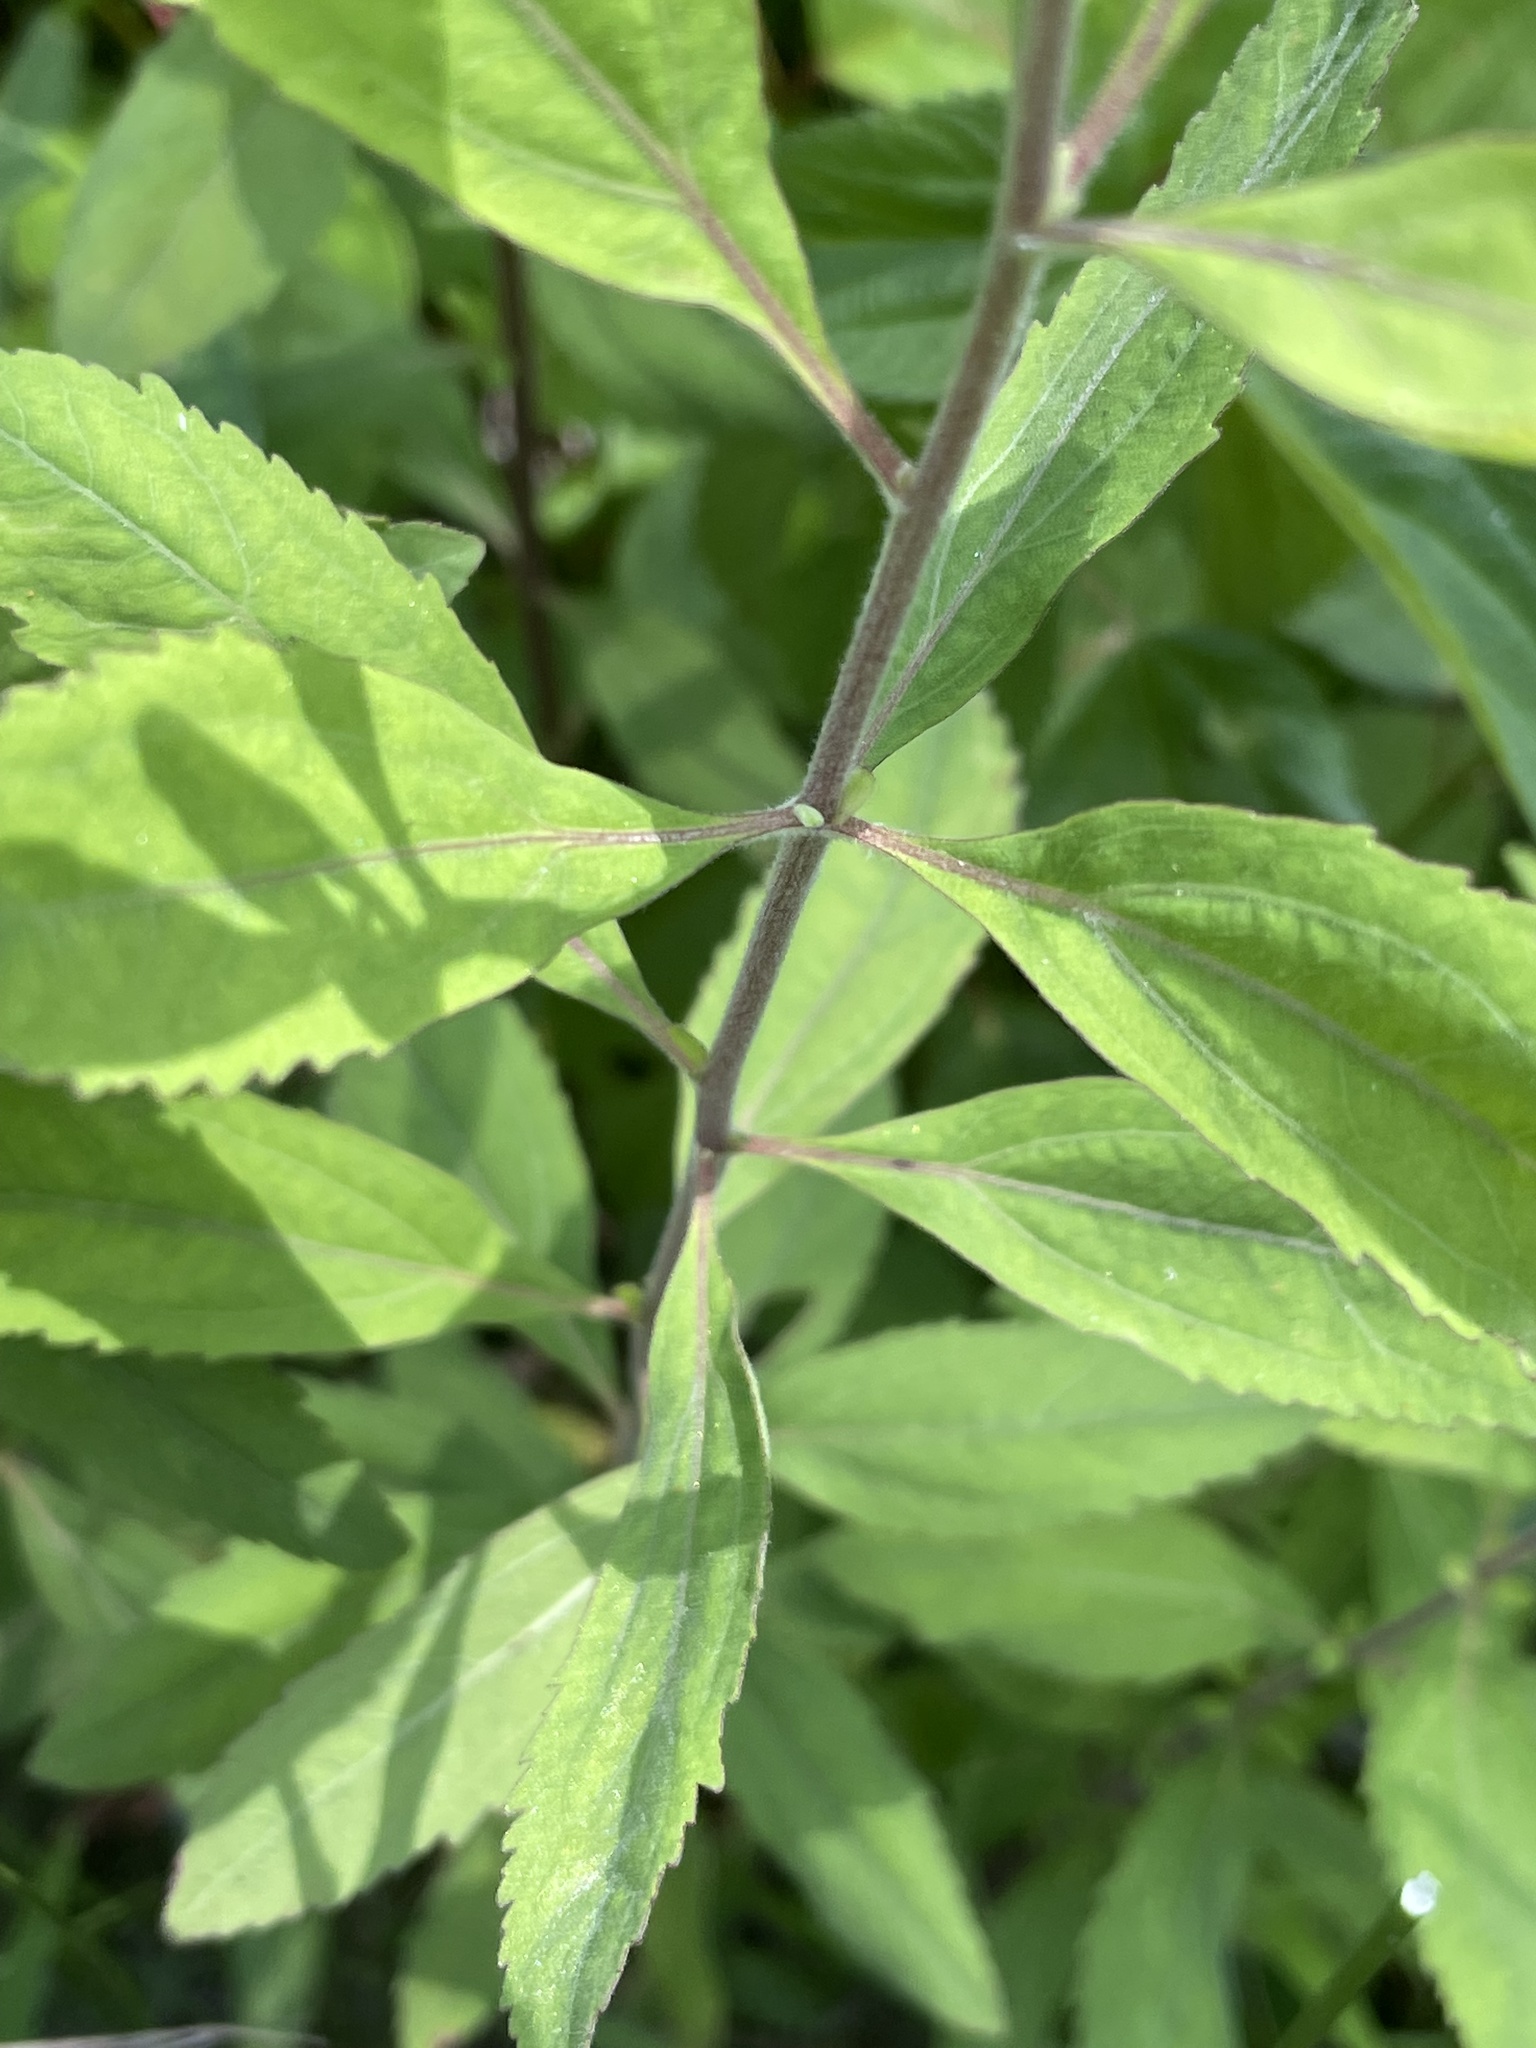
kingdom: Plantae
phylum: Tracheophyta
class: Magnoliopsida
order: Asterales
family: Asteraceae
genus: Eupatorium
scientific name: Eupatorium semiserratum
